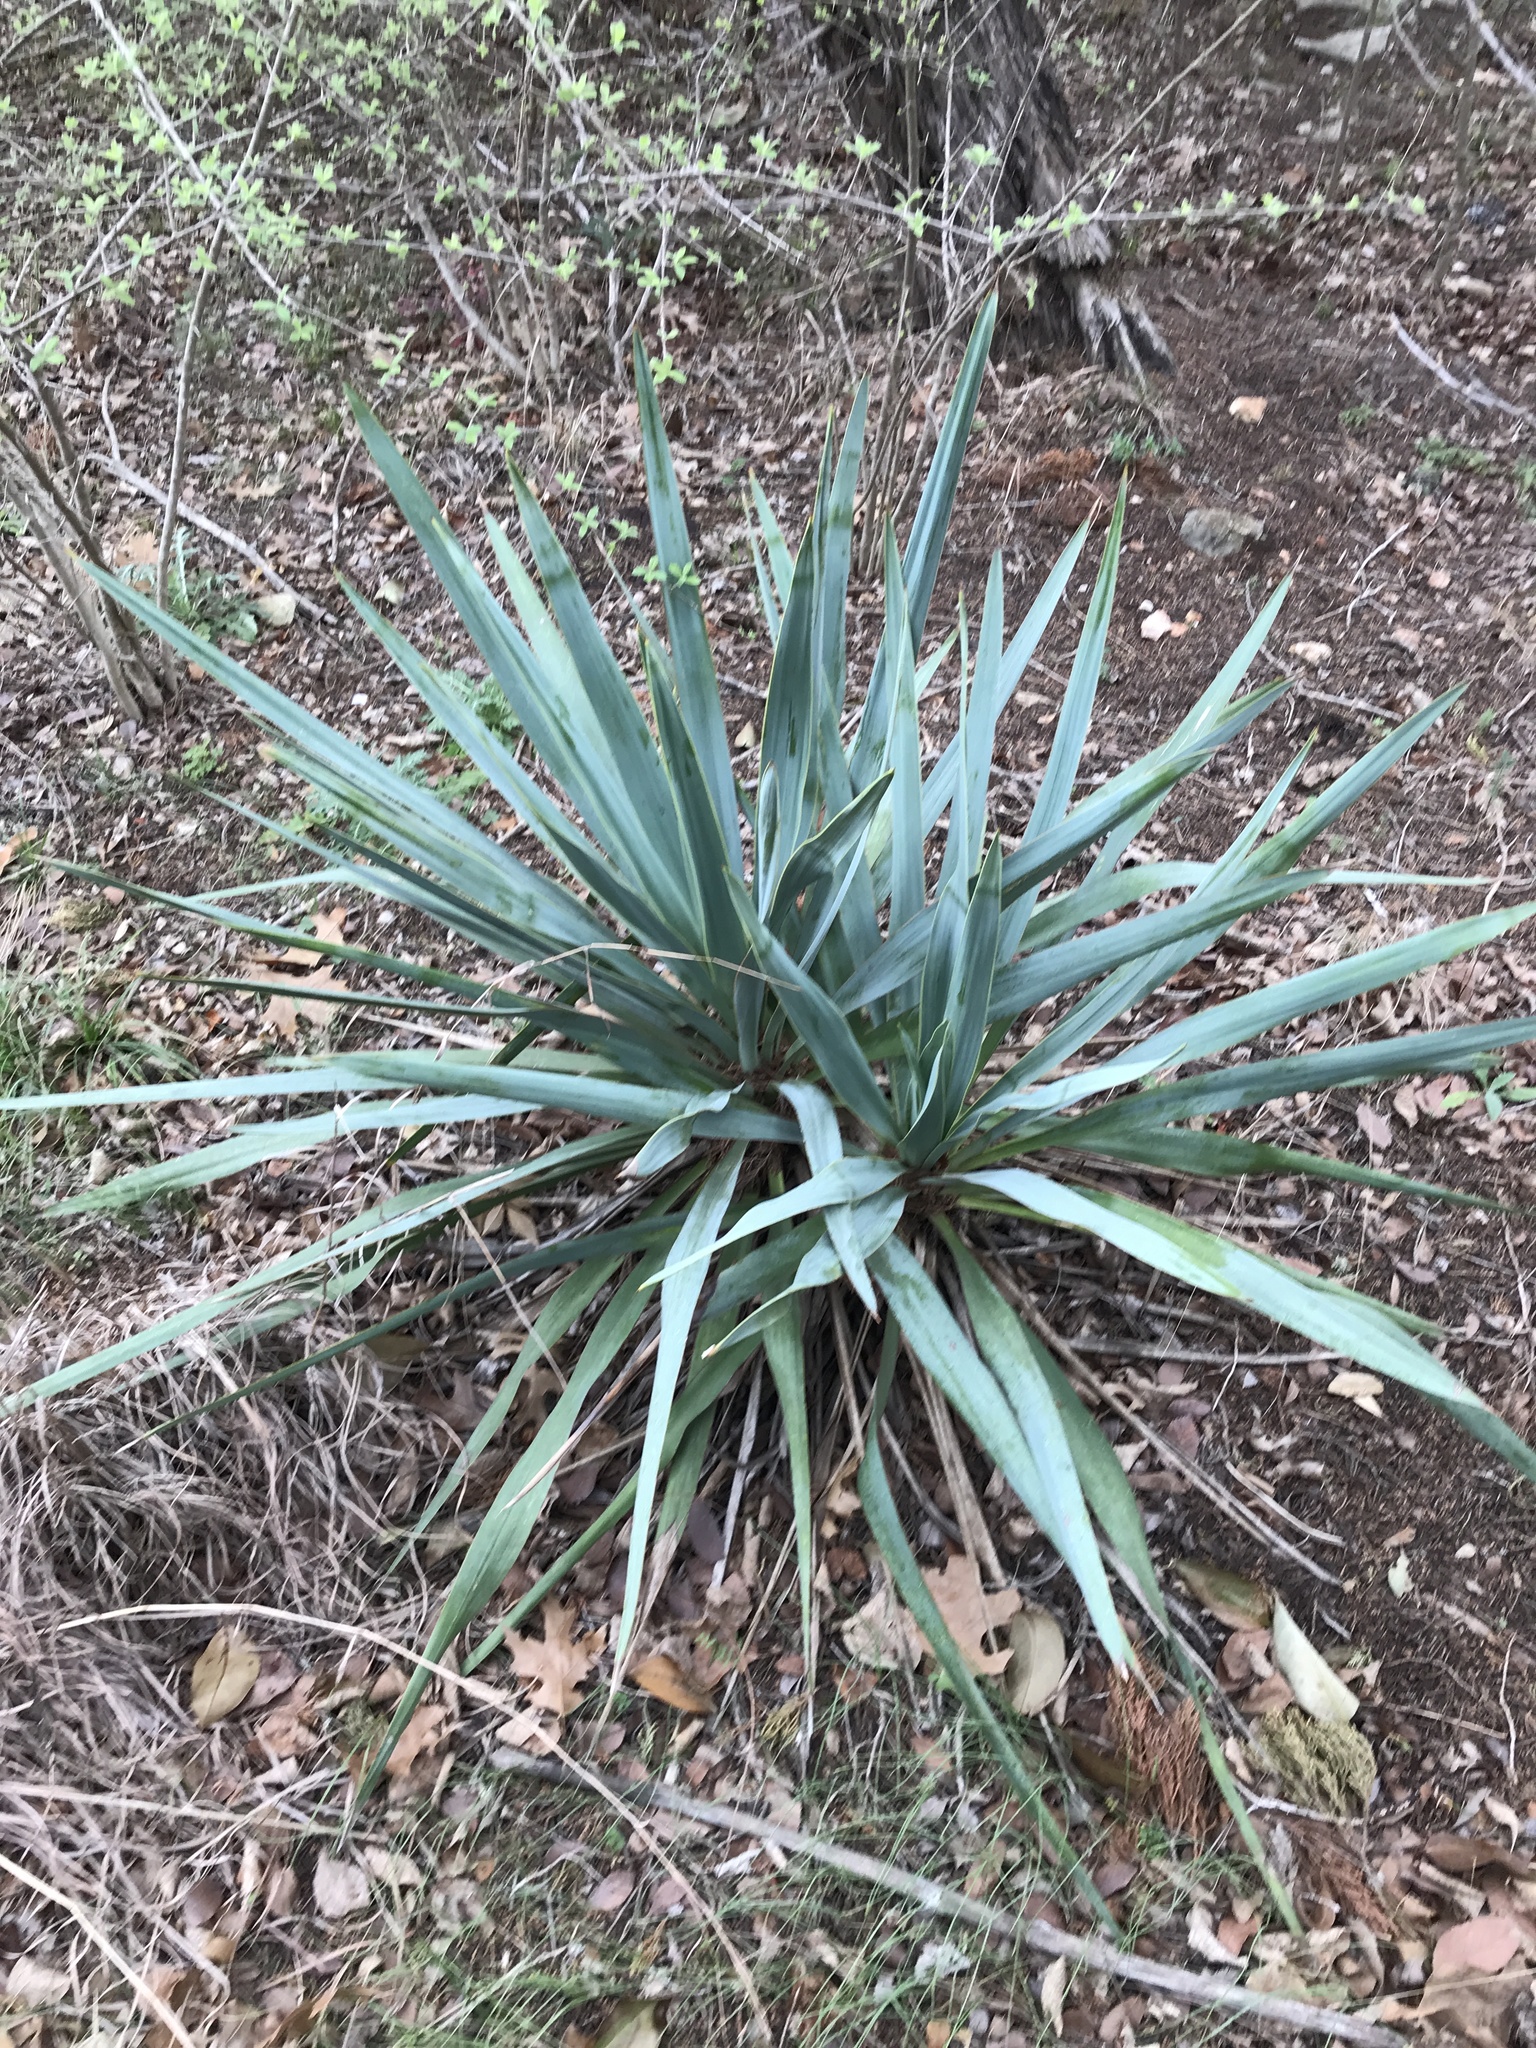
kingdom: Plantae
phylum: Tracheophyta
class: Liliopsida
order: Asparagales
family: Asparagaceae
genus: Yucca
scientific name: Yucca pallida
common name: Pale leaf yucca
